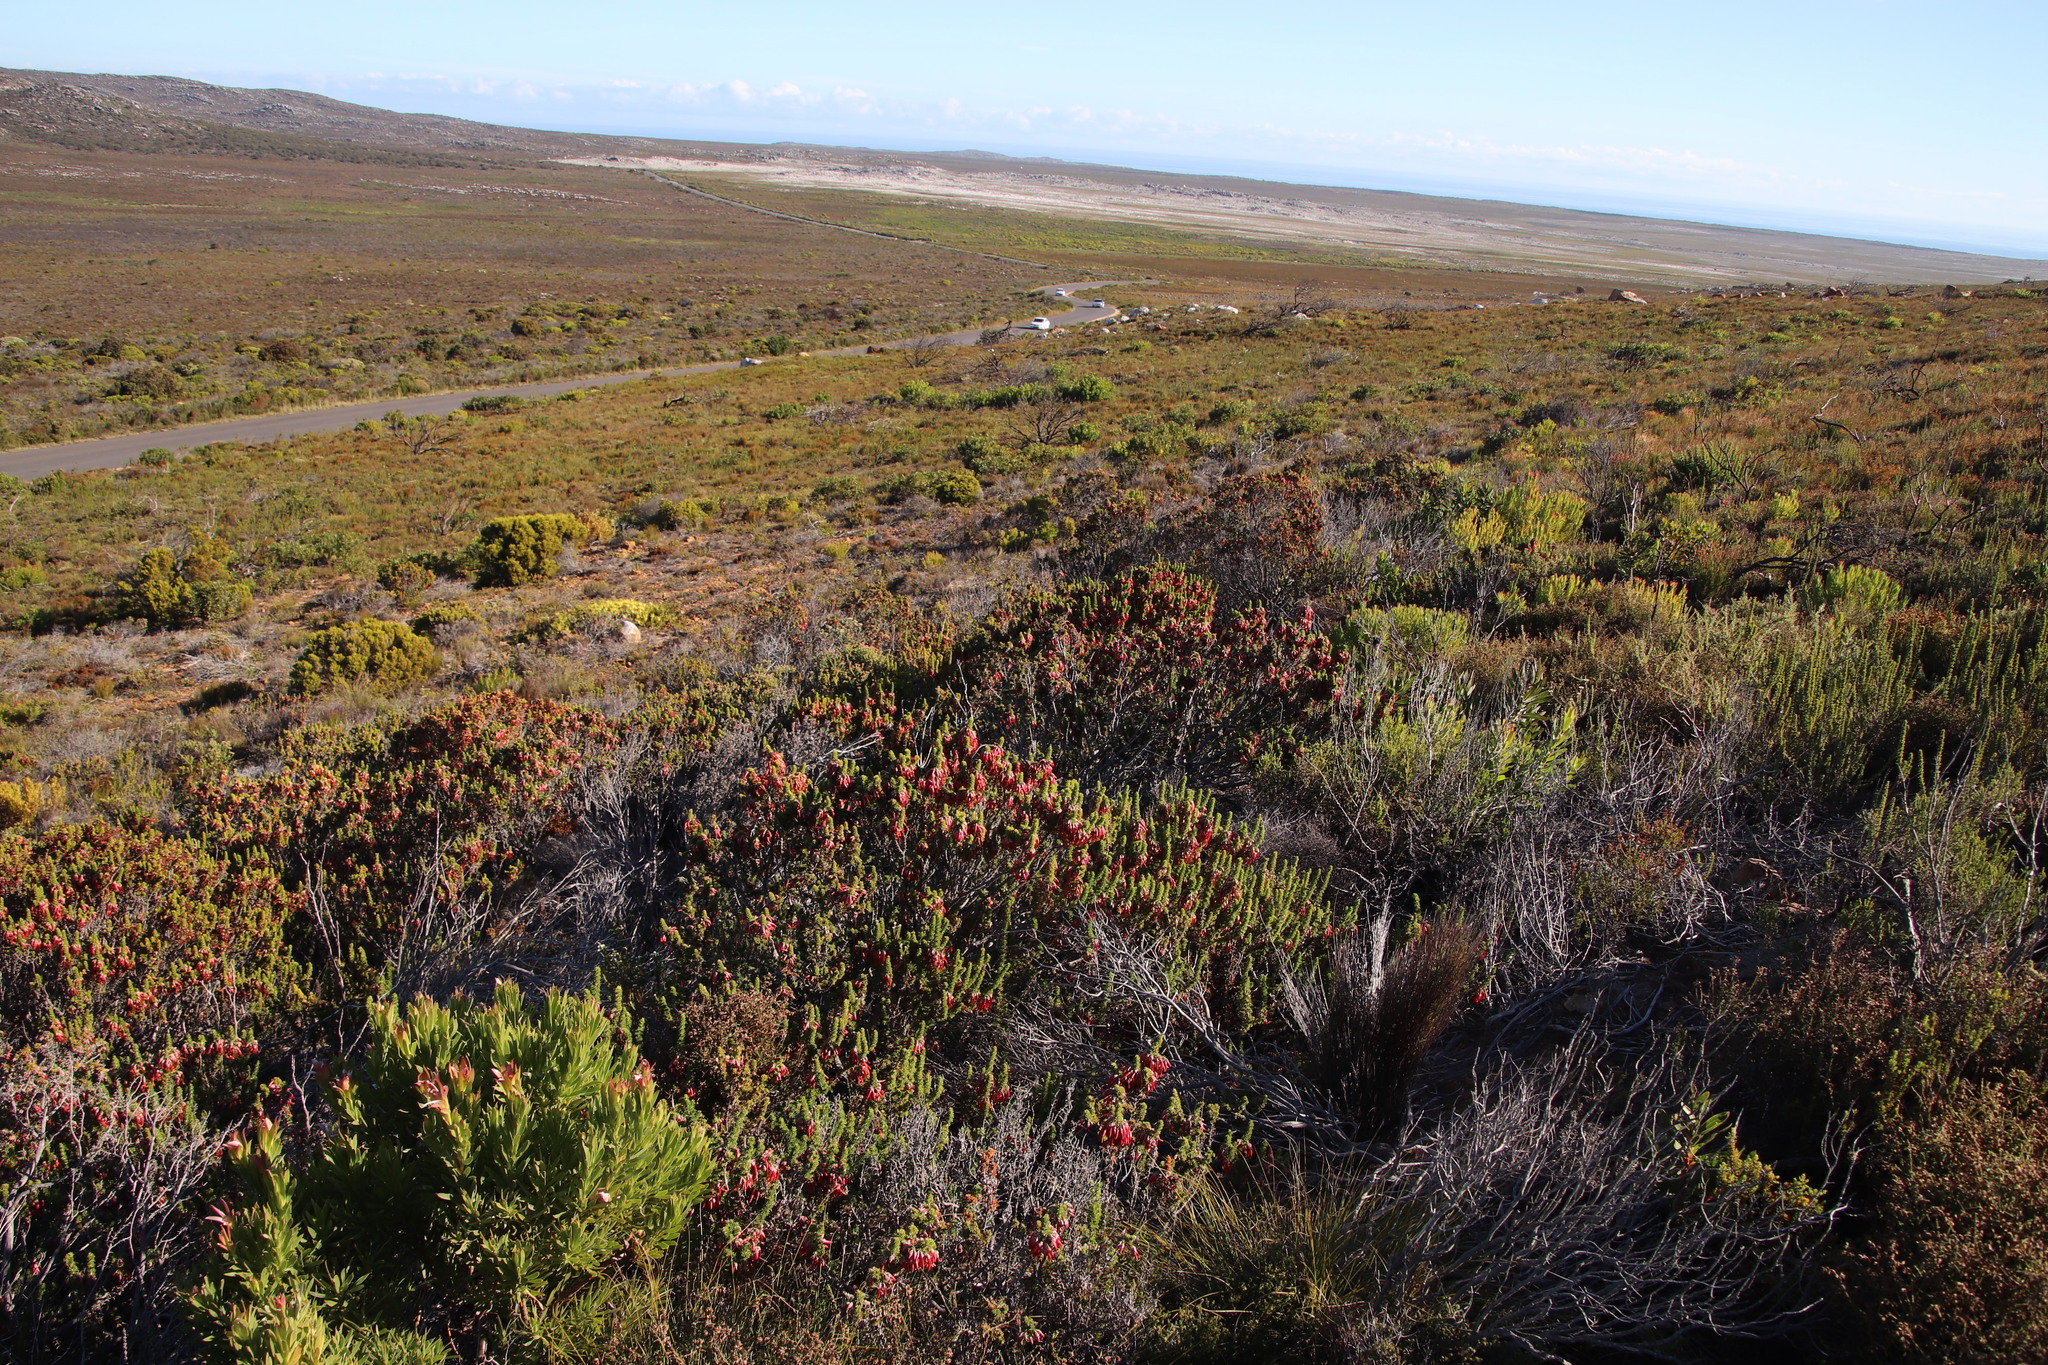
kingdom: Plantae
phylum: Tracheophyta
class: Magnoliopsida
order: Ericales
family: Ericaceae
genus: Erica
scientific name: Erica coccinea
